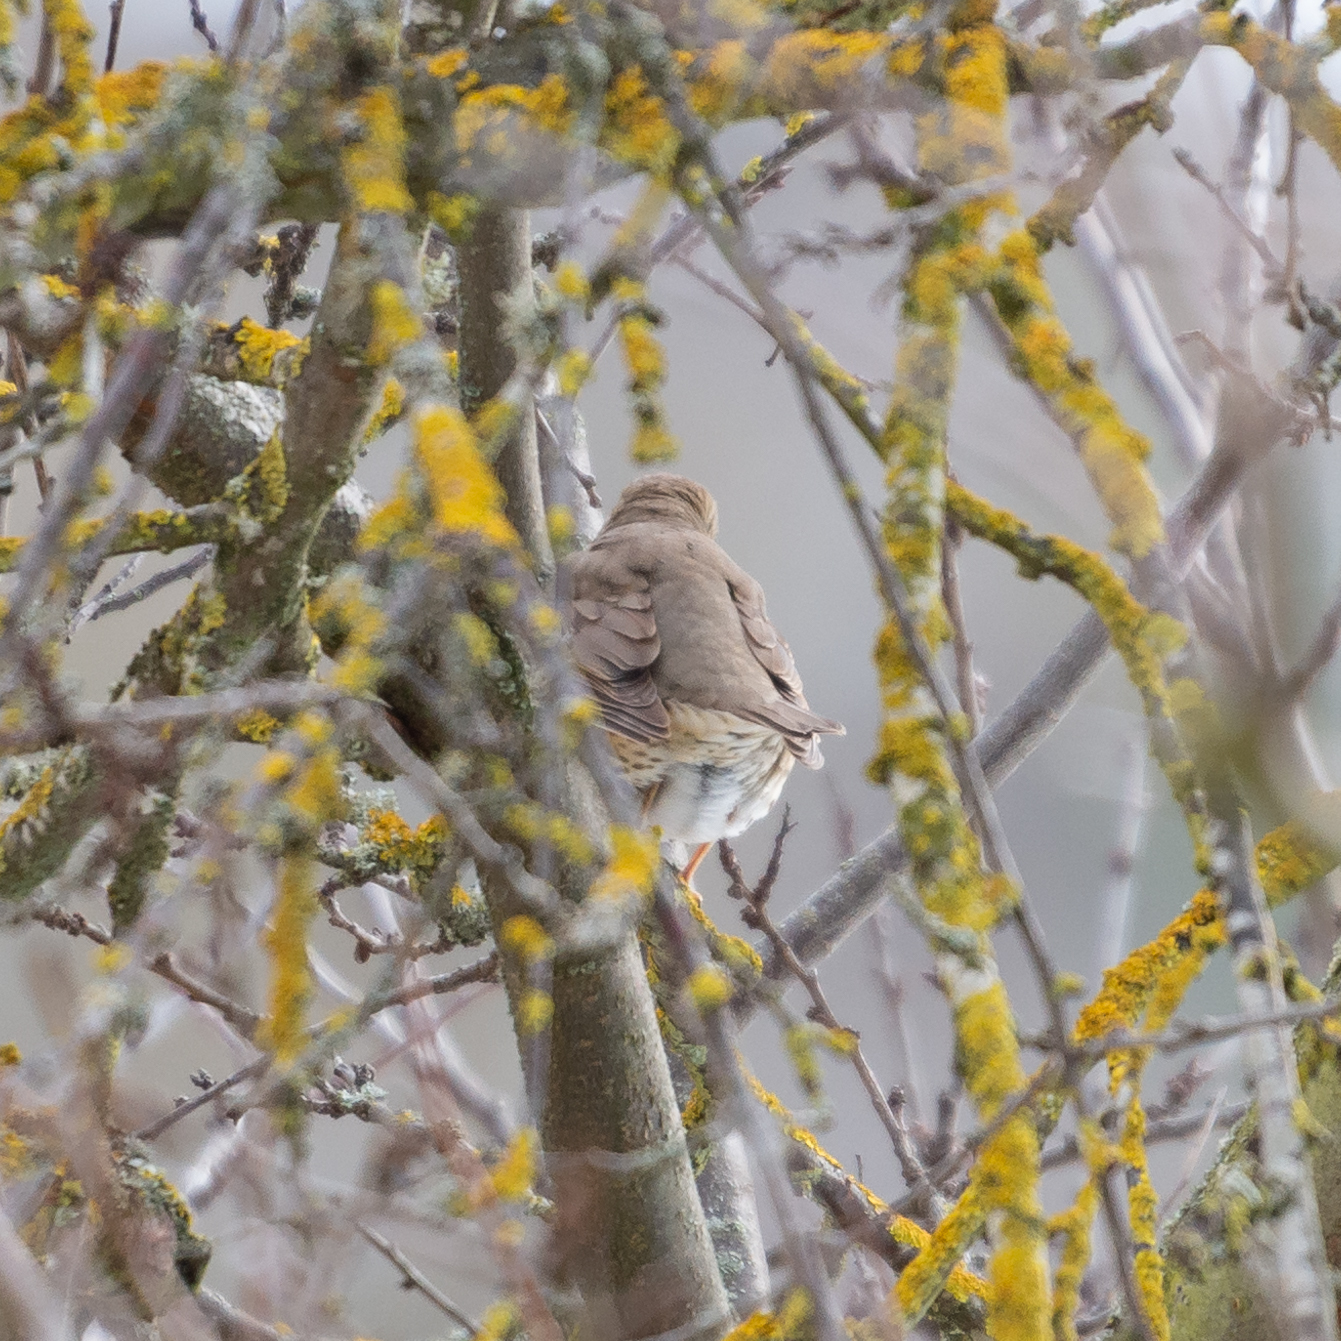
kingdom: Animalia
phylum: Chordata
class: Aves
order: Passeriformes
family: Turdidae
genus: Turdus
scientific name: Turdus philomelos
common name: Song thrush
